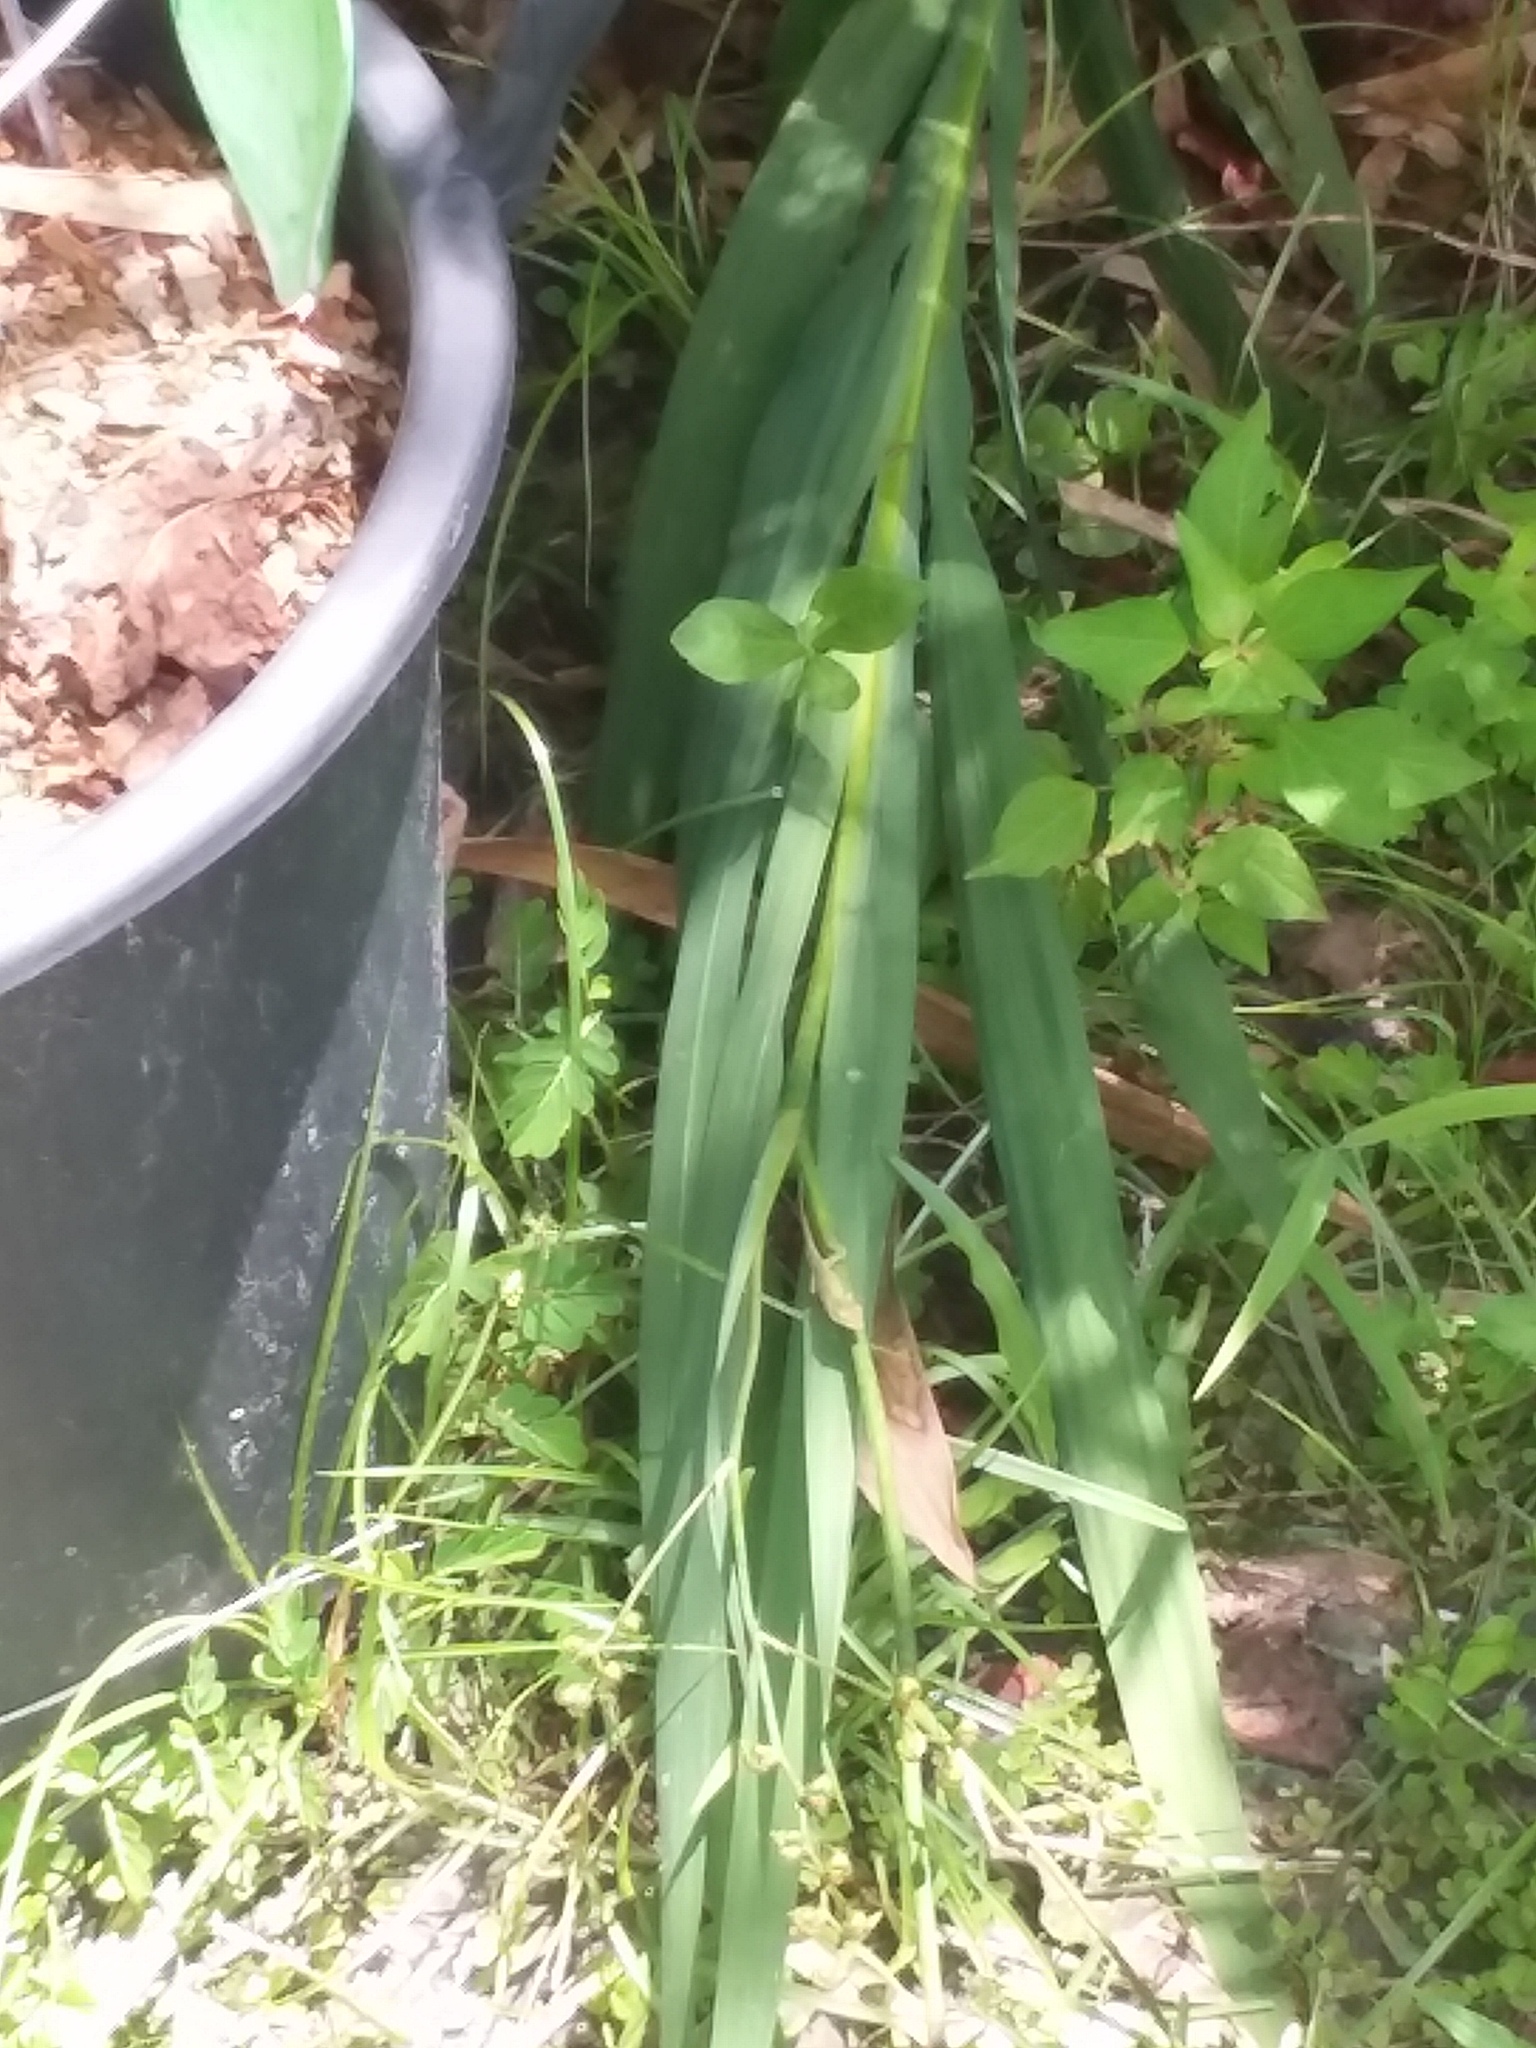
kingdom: Animalia
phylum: Chordata
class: Squamata
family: Dactyloidae
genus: Anolis
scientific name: Anolis carolinensis
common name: Green anole
